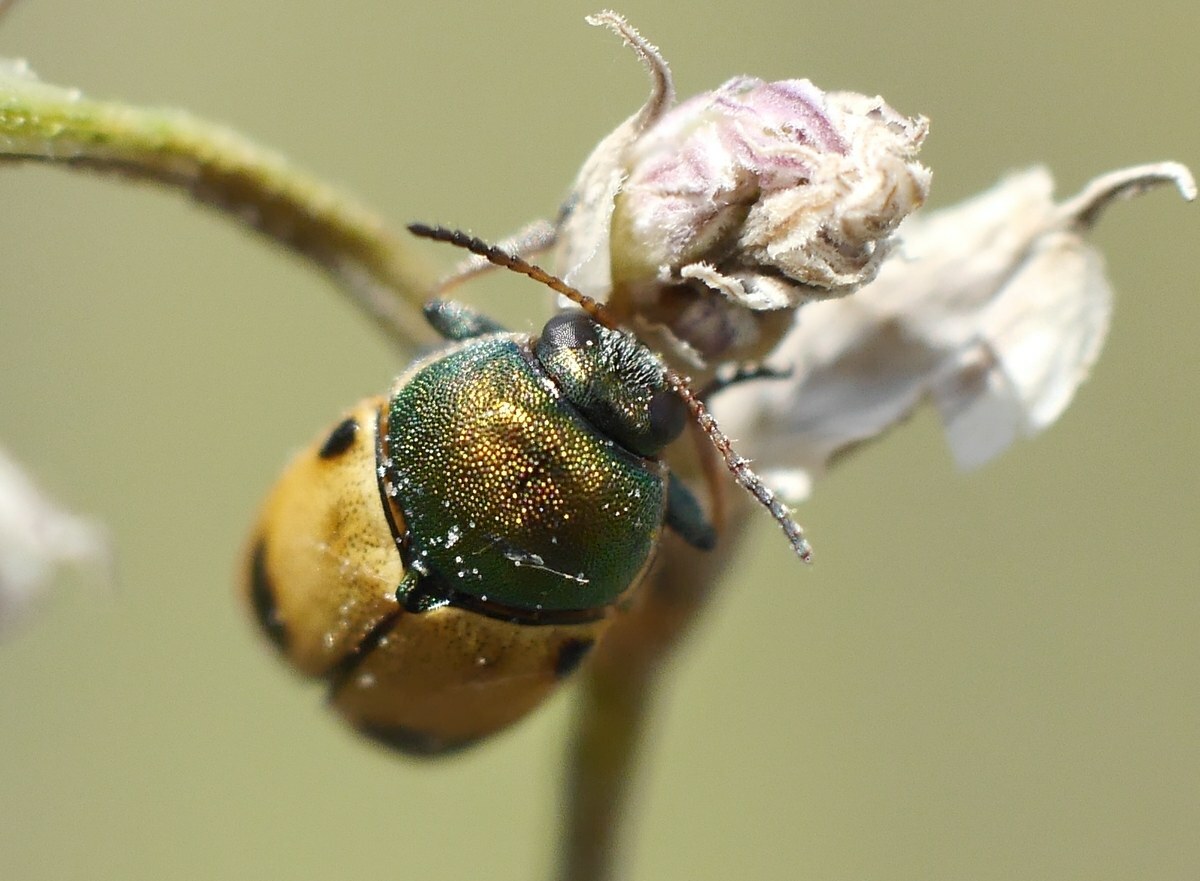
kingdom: Animalia
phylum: Arthropoda
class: Insecta
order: Coleoptera
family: Chrysomelidae
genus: Cryptocephalus
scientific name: Cryptocephalus laetus
